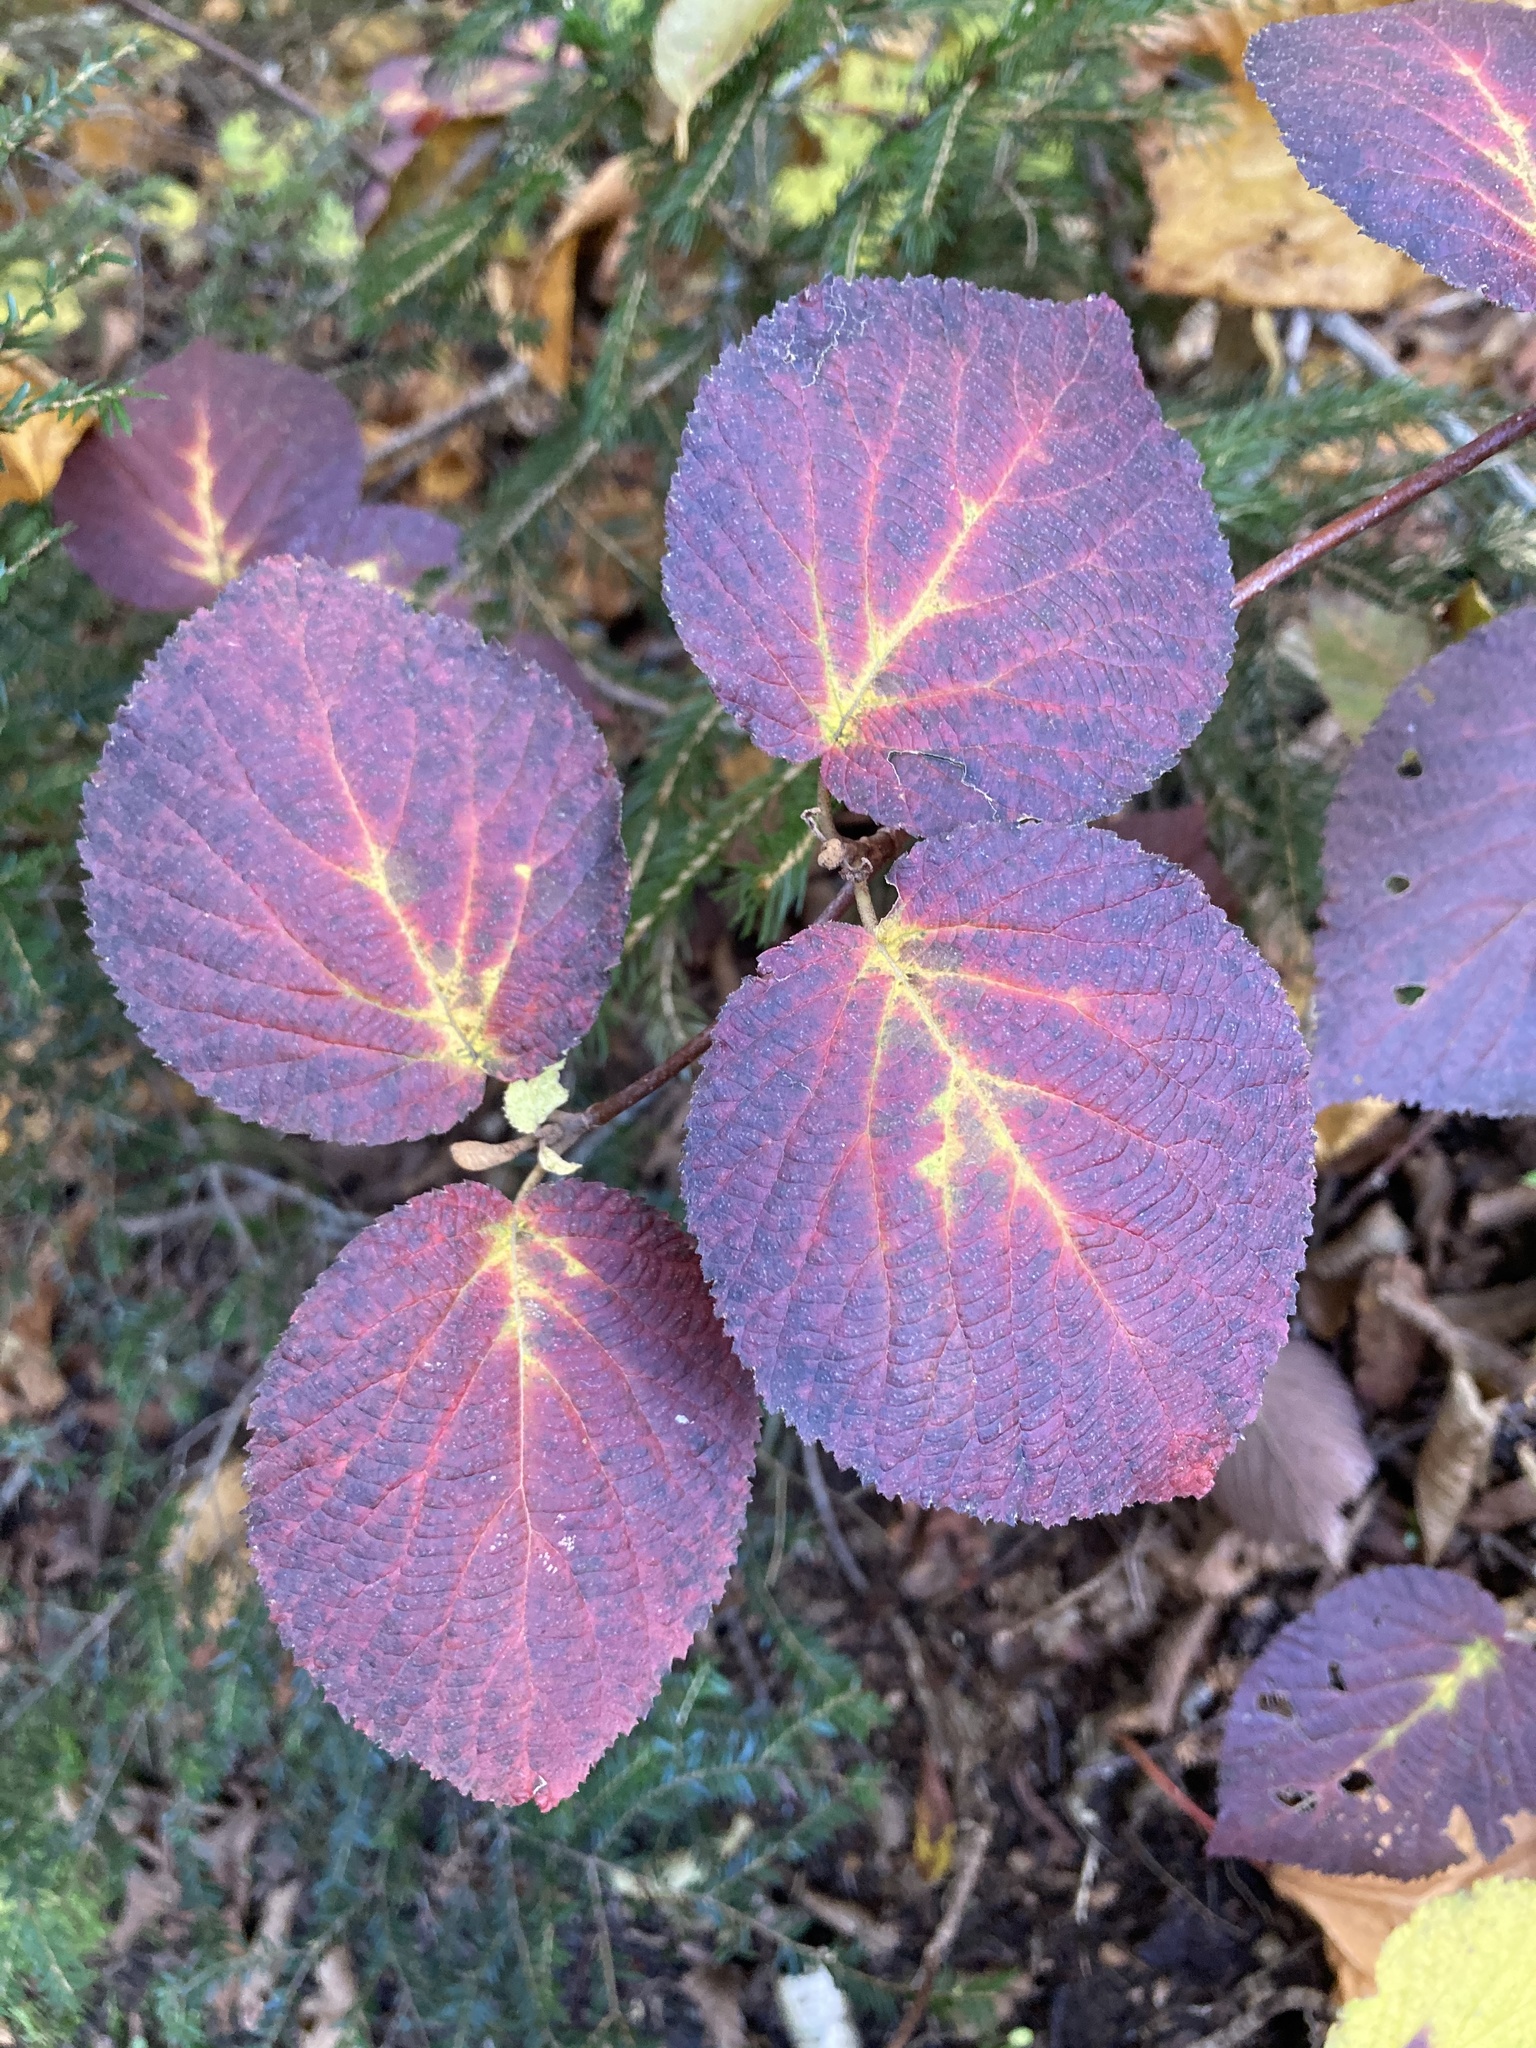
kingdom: Plantae
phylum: Tracheophyta
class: Magnoliopsida
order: Dipsacales
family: Viburnaceae
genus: Viburnum
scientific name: Viburnum lantanoides
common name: Hobblebush
